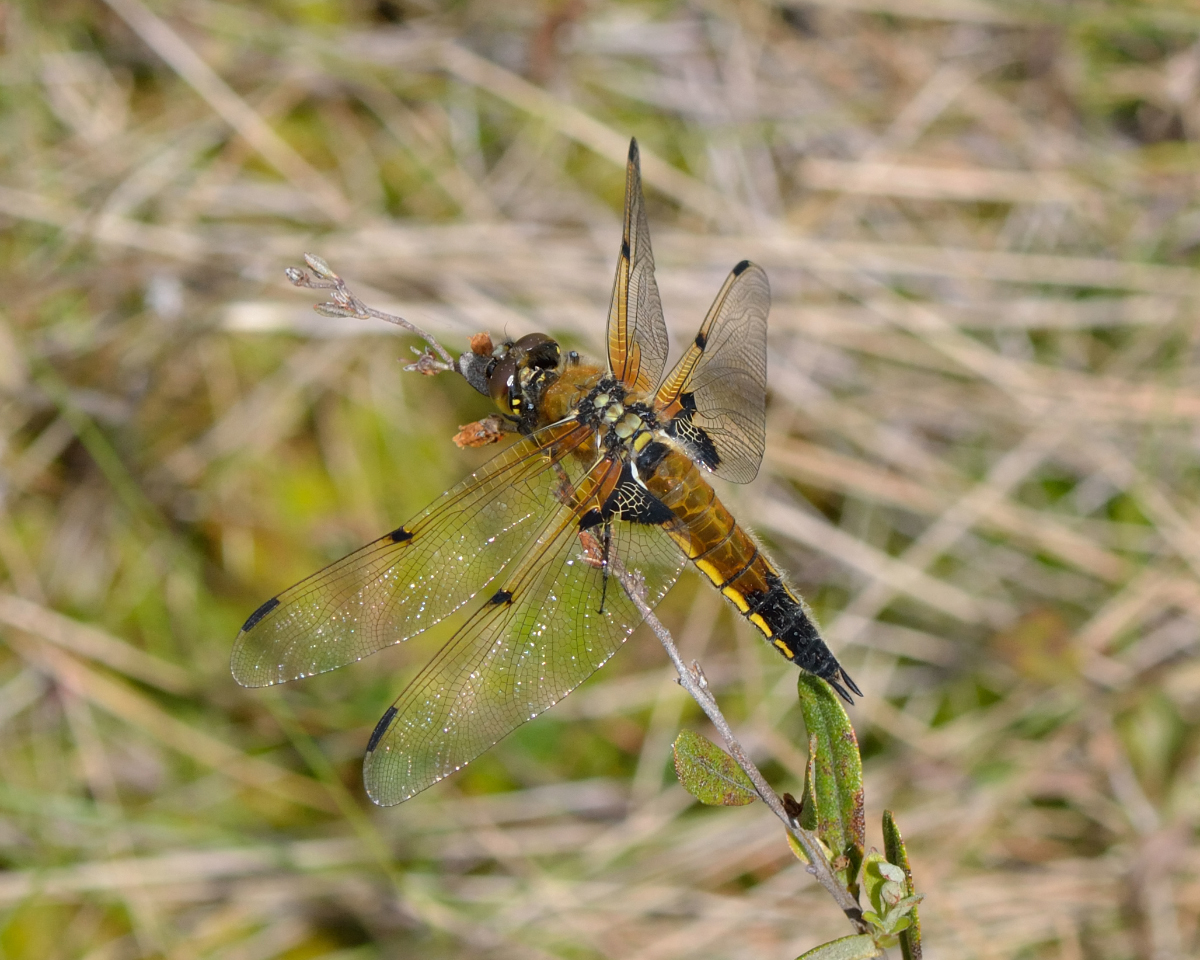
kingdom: Animalia
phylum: Arthropoda
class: Insecta
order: Odonata
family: Libellulidae
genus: Libellula
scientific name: Libellula quadrimaculata
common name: Four-spotted chaser
